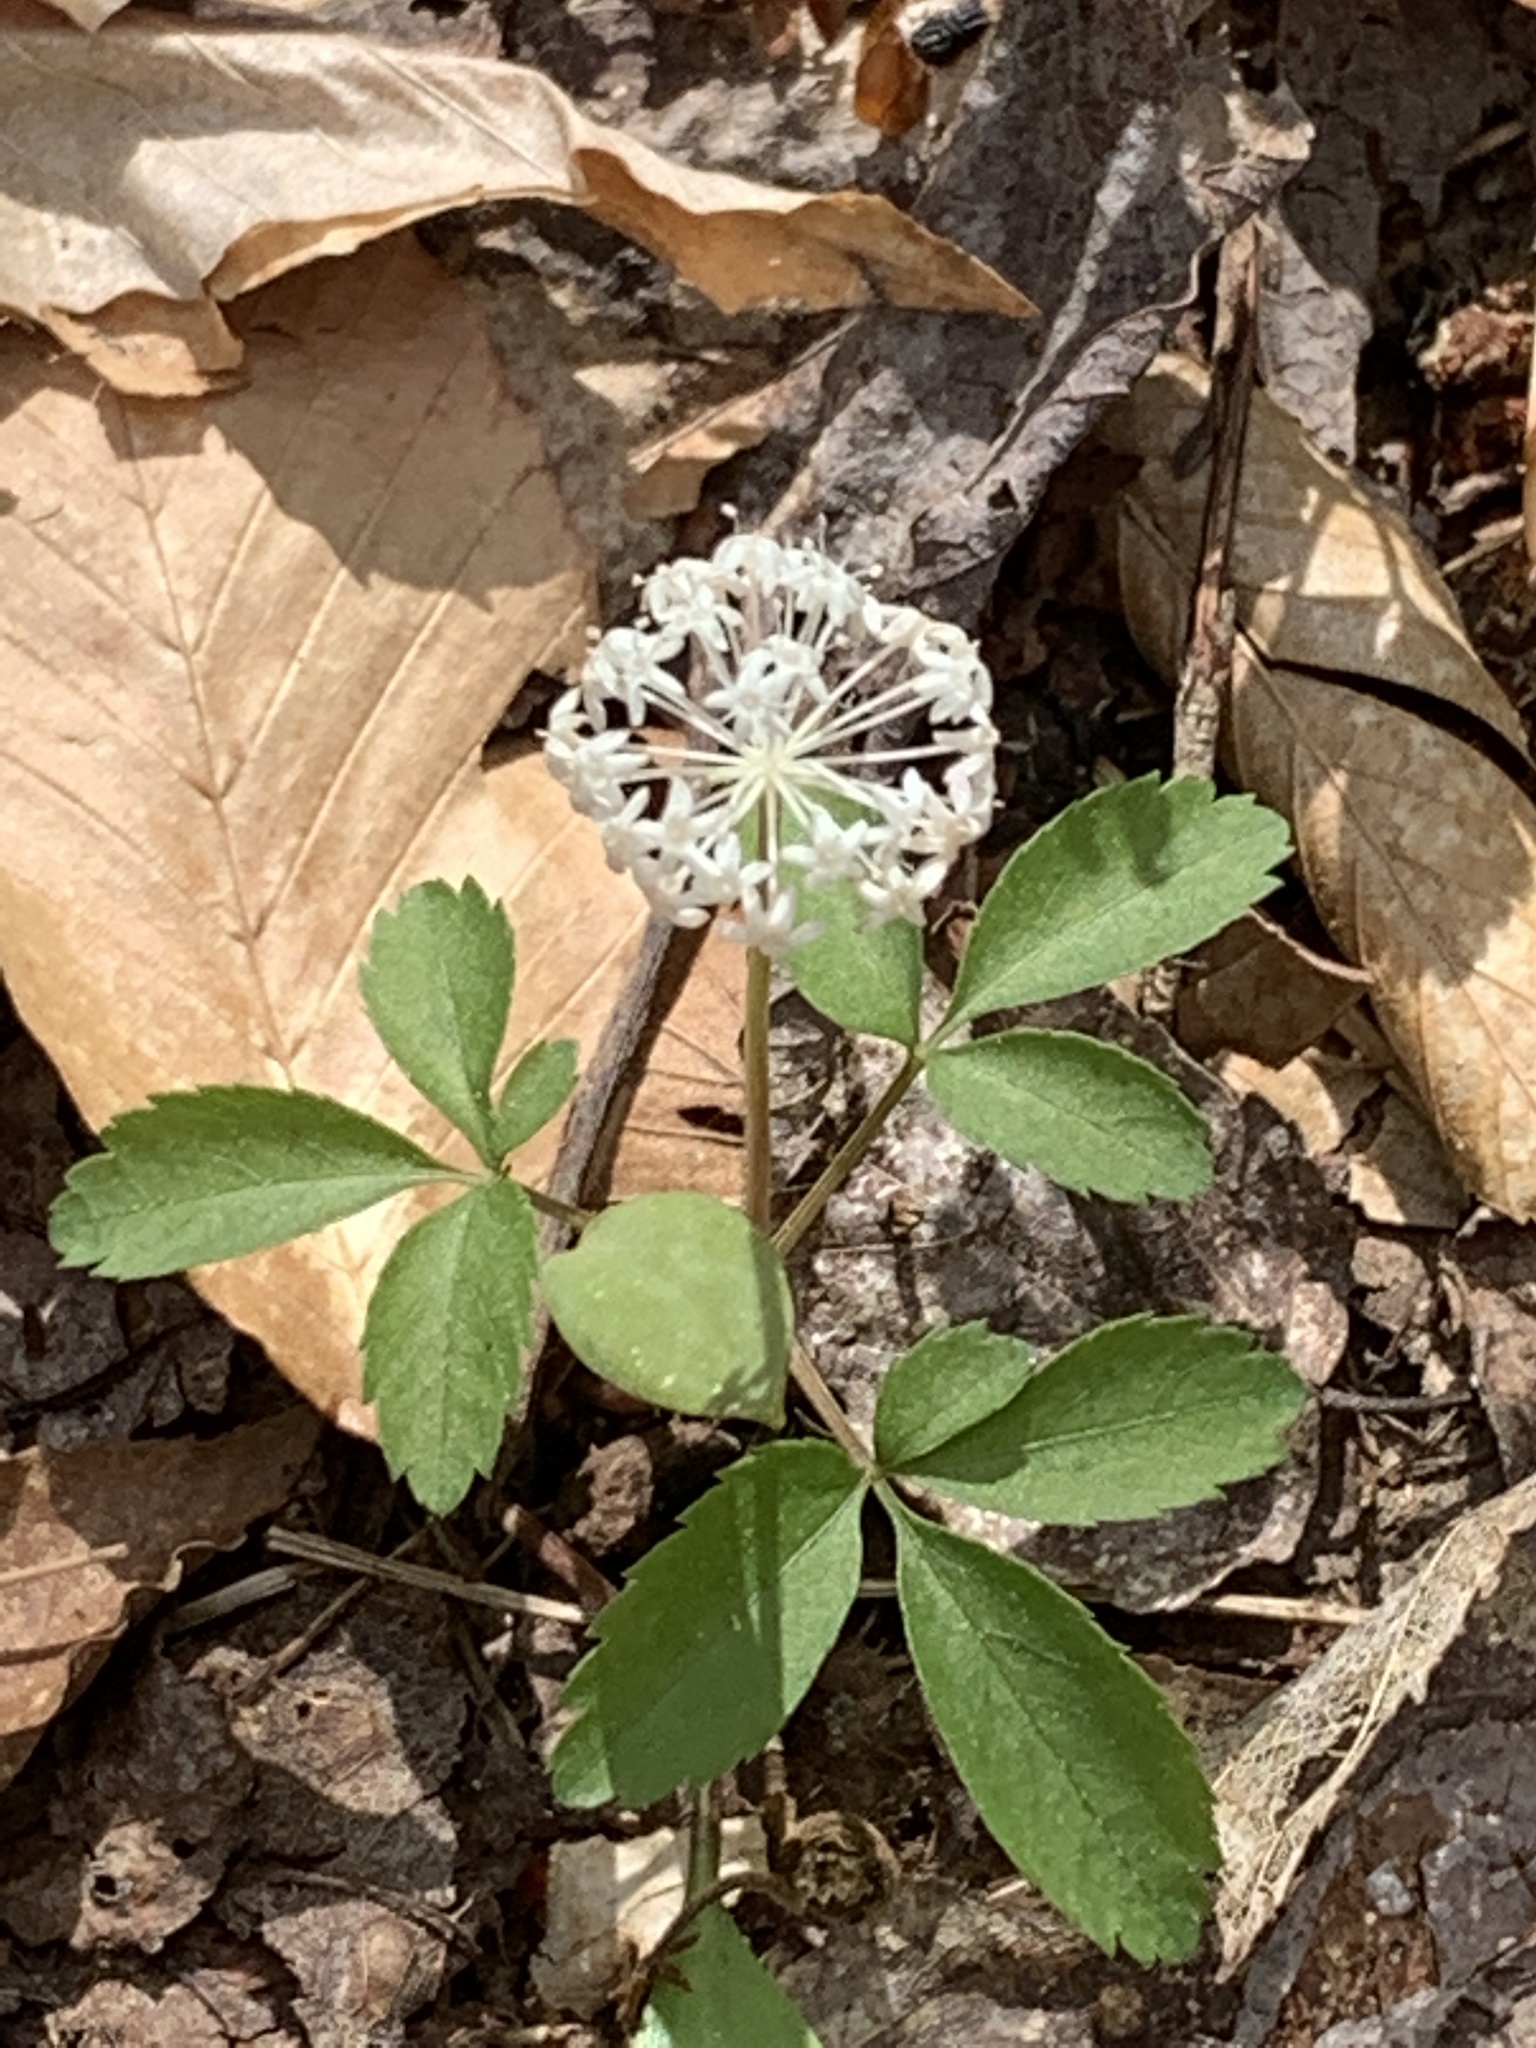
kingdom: Plantae
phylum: Tracheophyta
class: Magnoliopsida
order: Apiales
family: Araliaceae
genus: Panax
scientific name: Panax trifolius
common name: Dwarf ginseng
